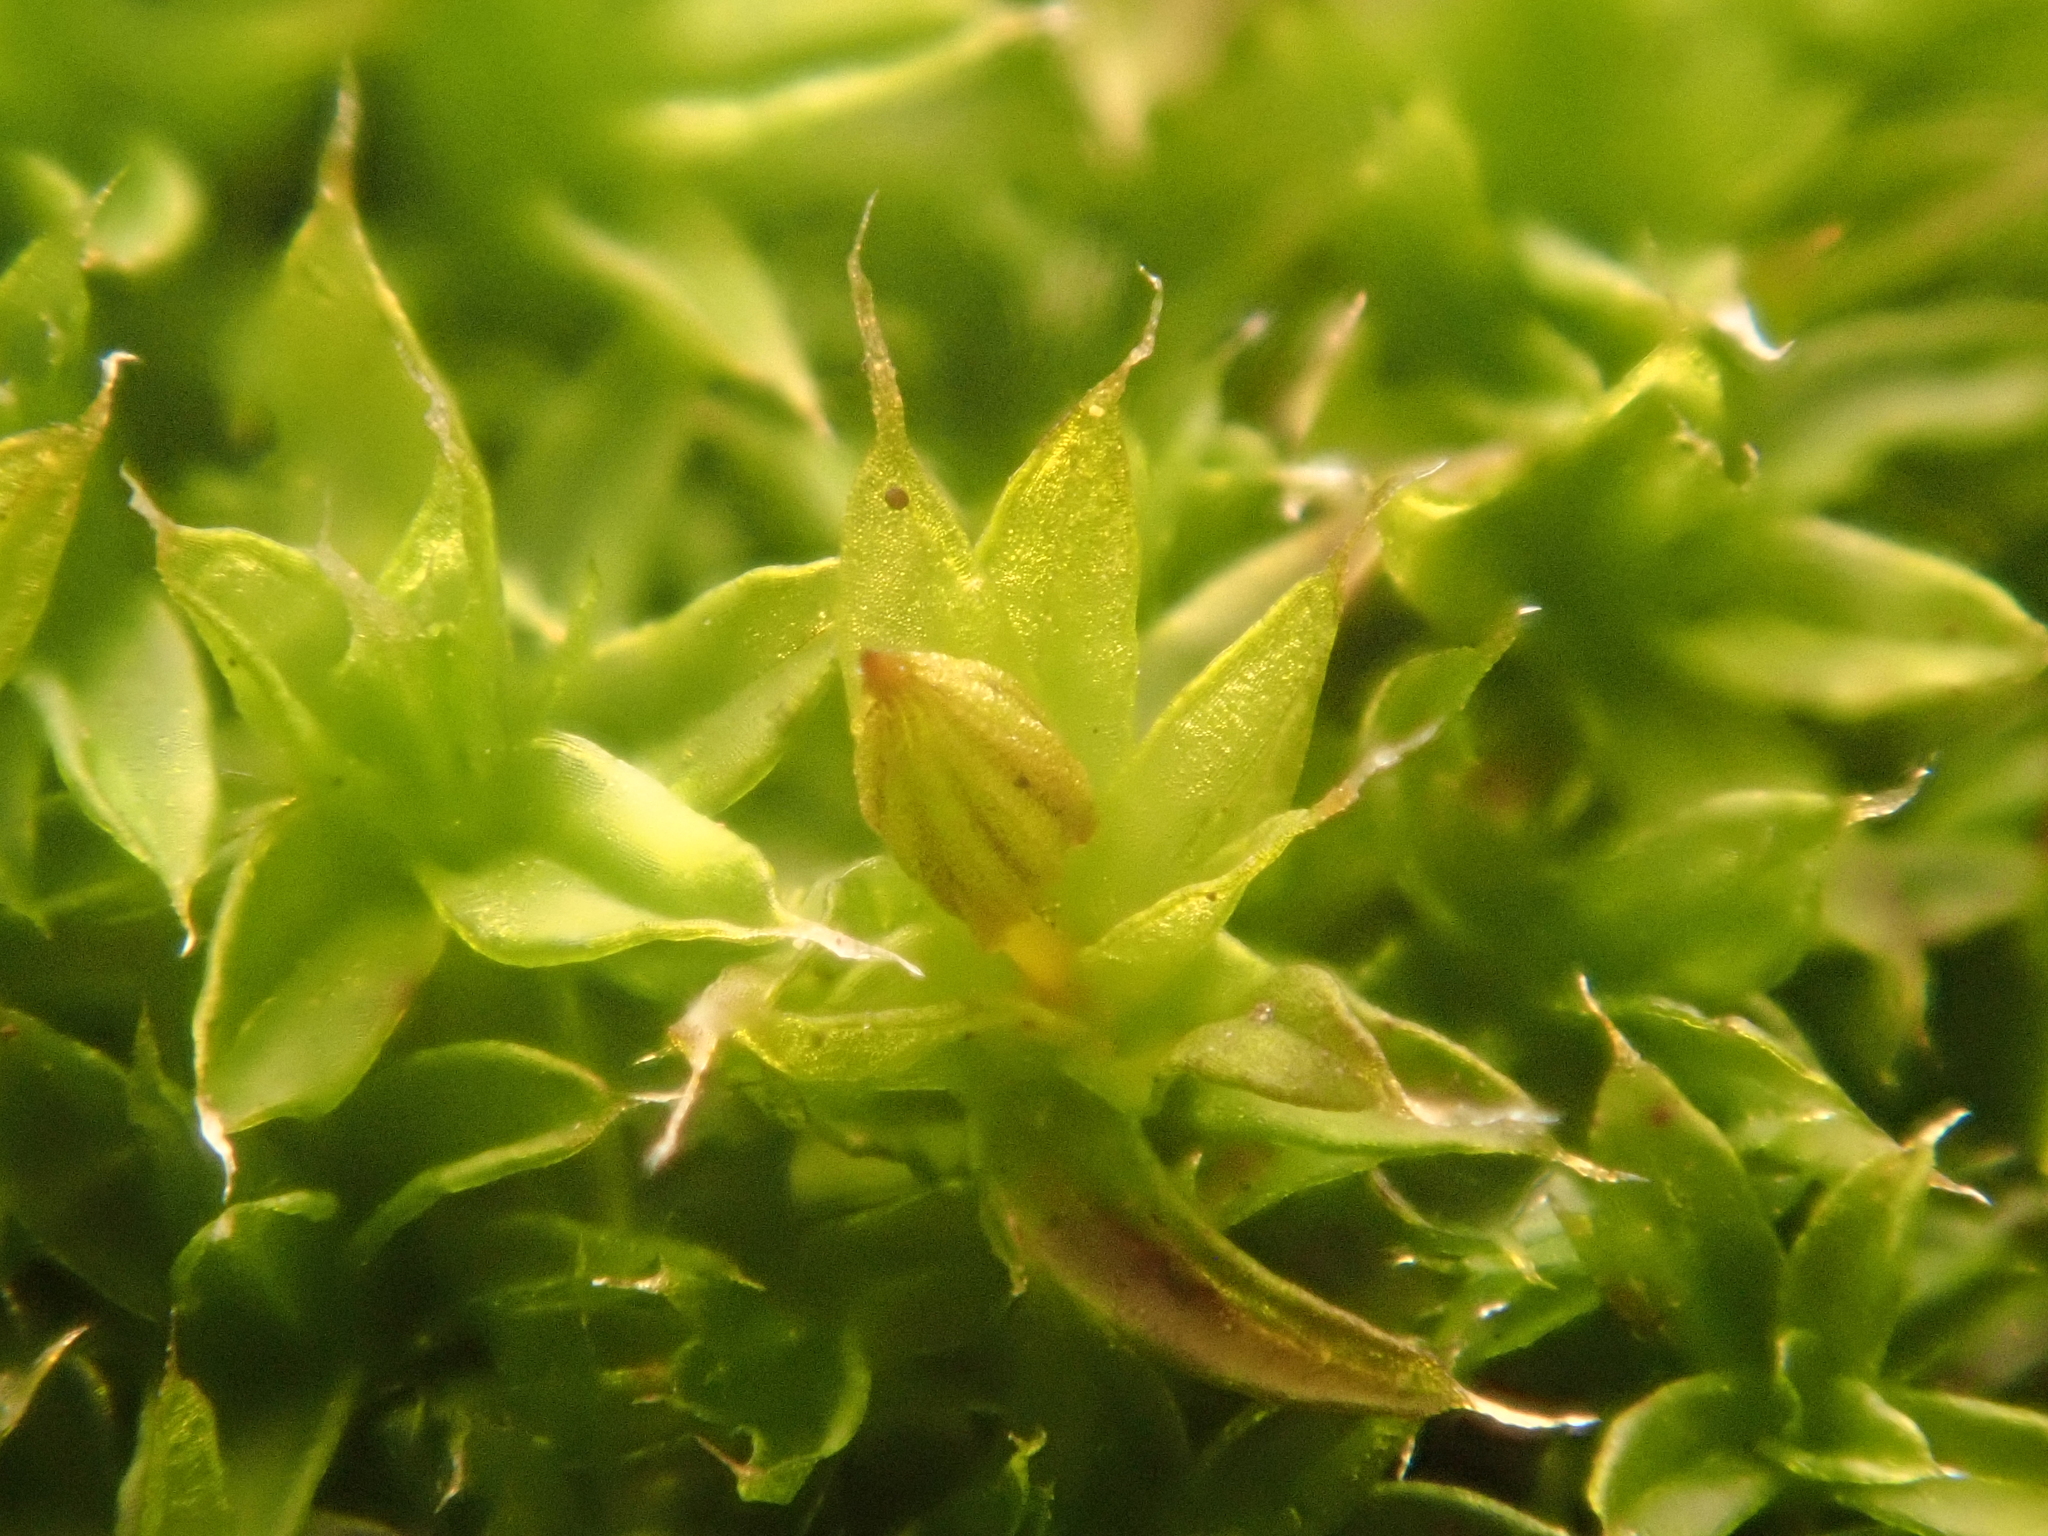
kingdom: Plantae
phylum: Bryophyta
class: Bryopsida
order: Orthotrichales
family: Orthotrichaceae
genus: Orthotrichum
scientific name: Orthotrichum diaphanum
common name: White-tipped bristle-moss
